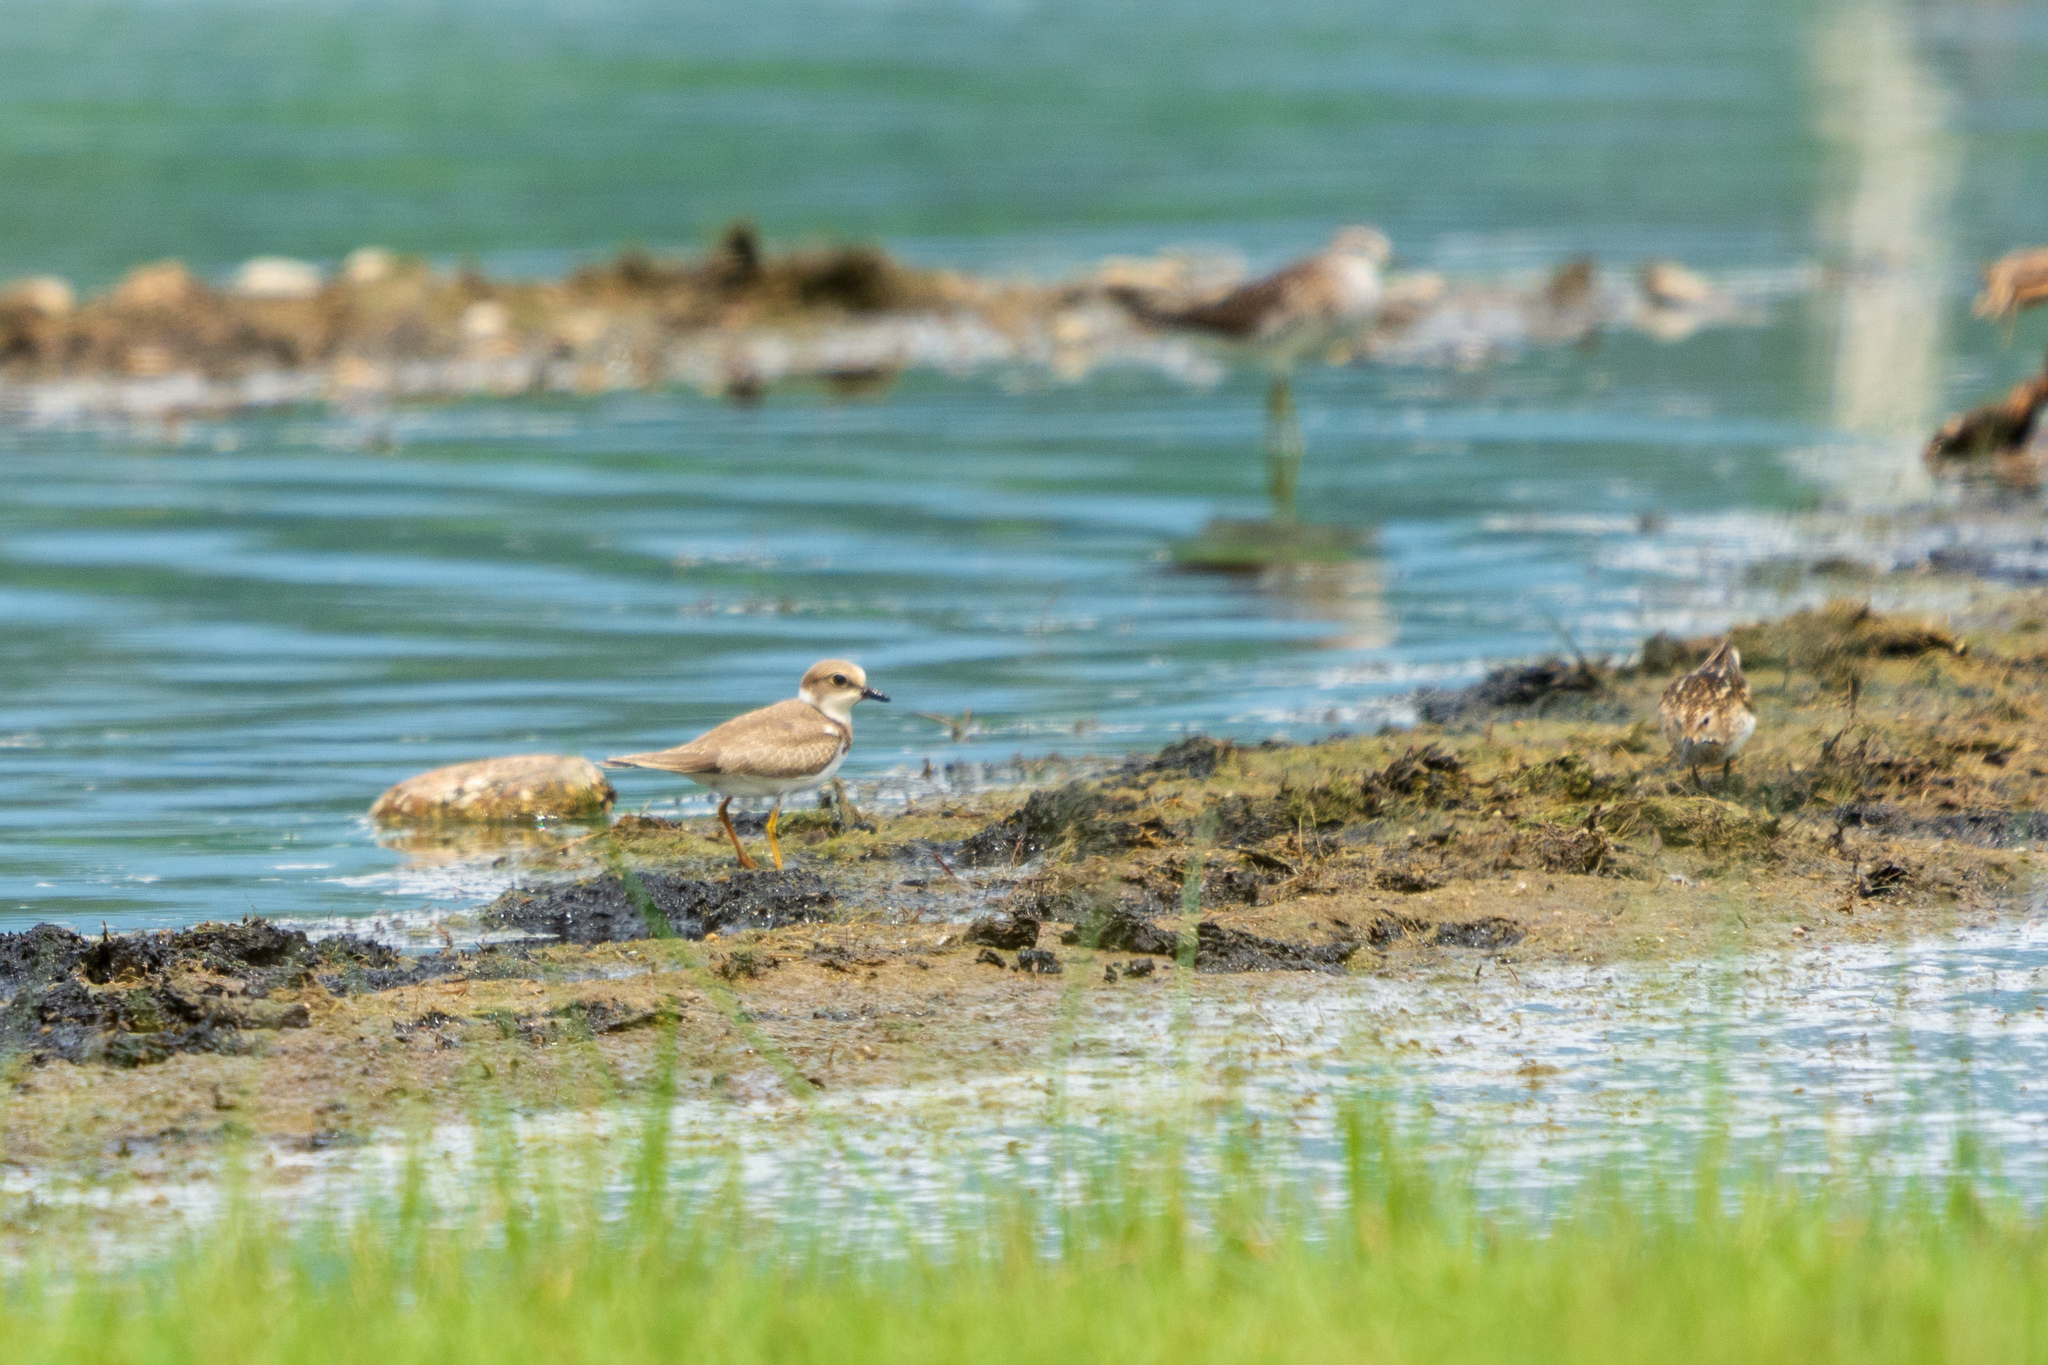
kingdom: Animalia
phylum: Chordata
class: Aves
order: Charadriiformes
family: Charadriidae
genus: Charadrius
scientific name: Charadrius dubius
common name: Little ringed plover
